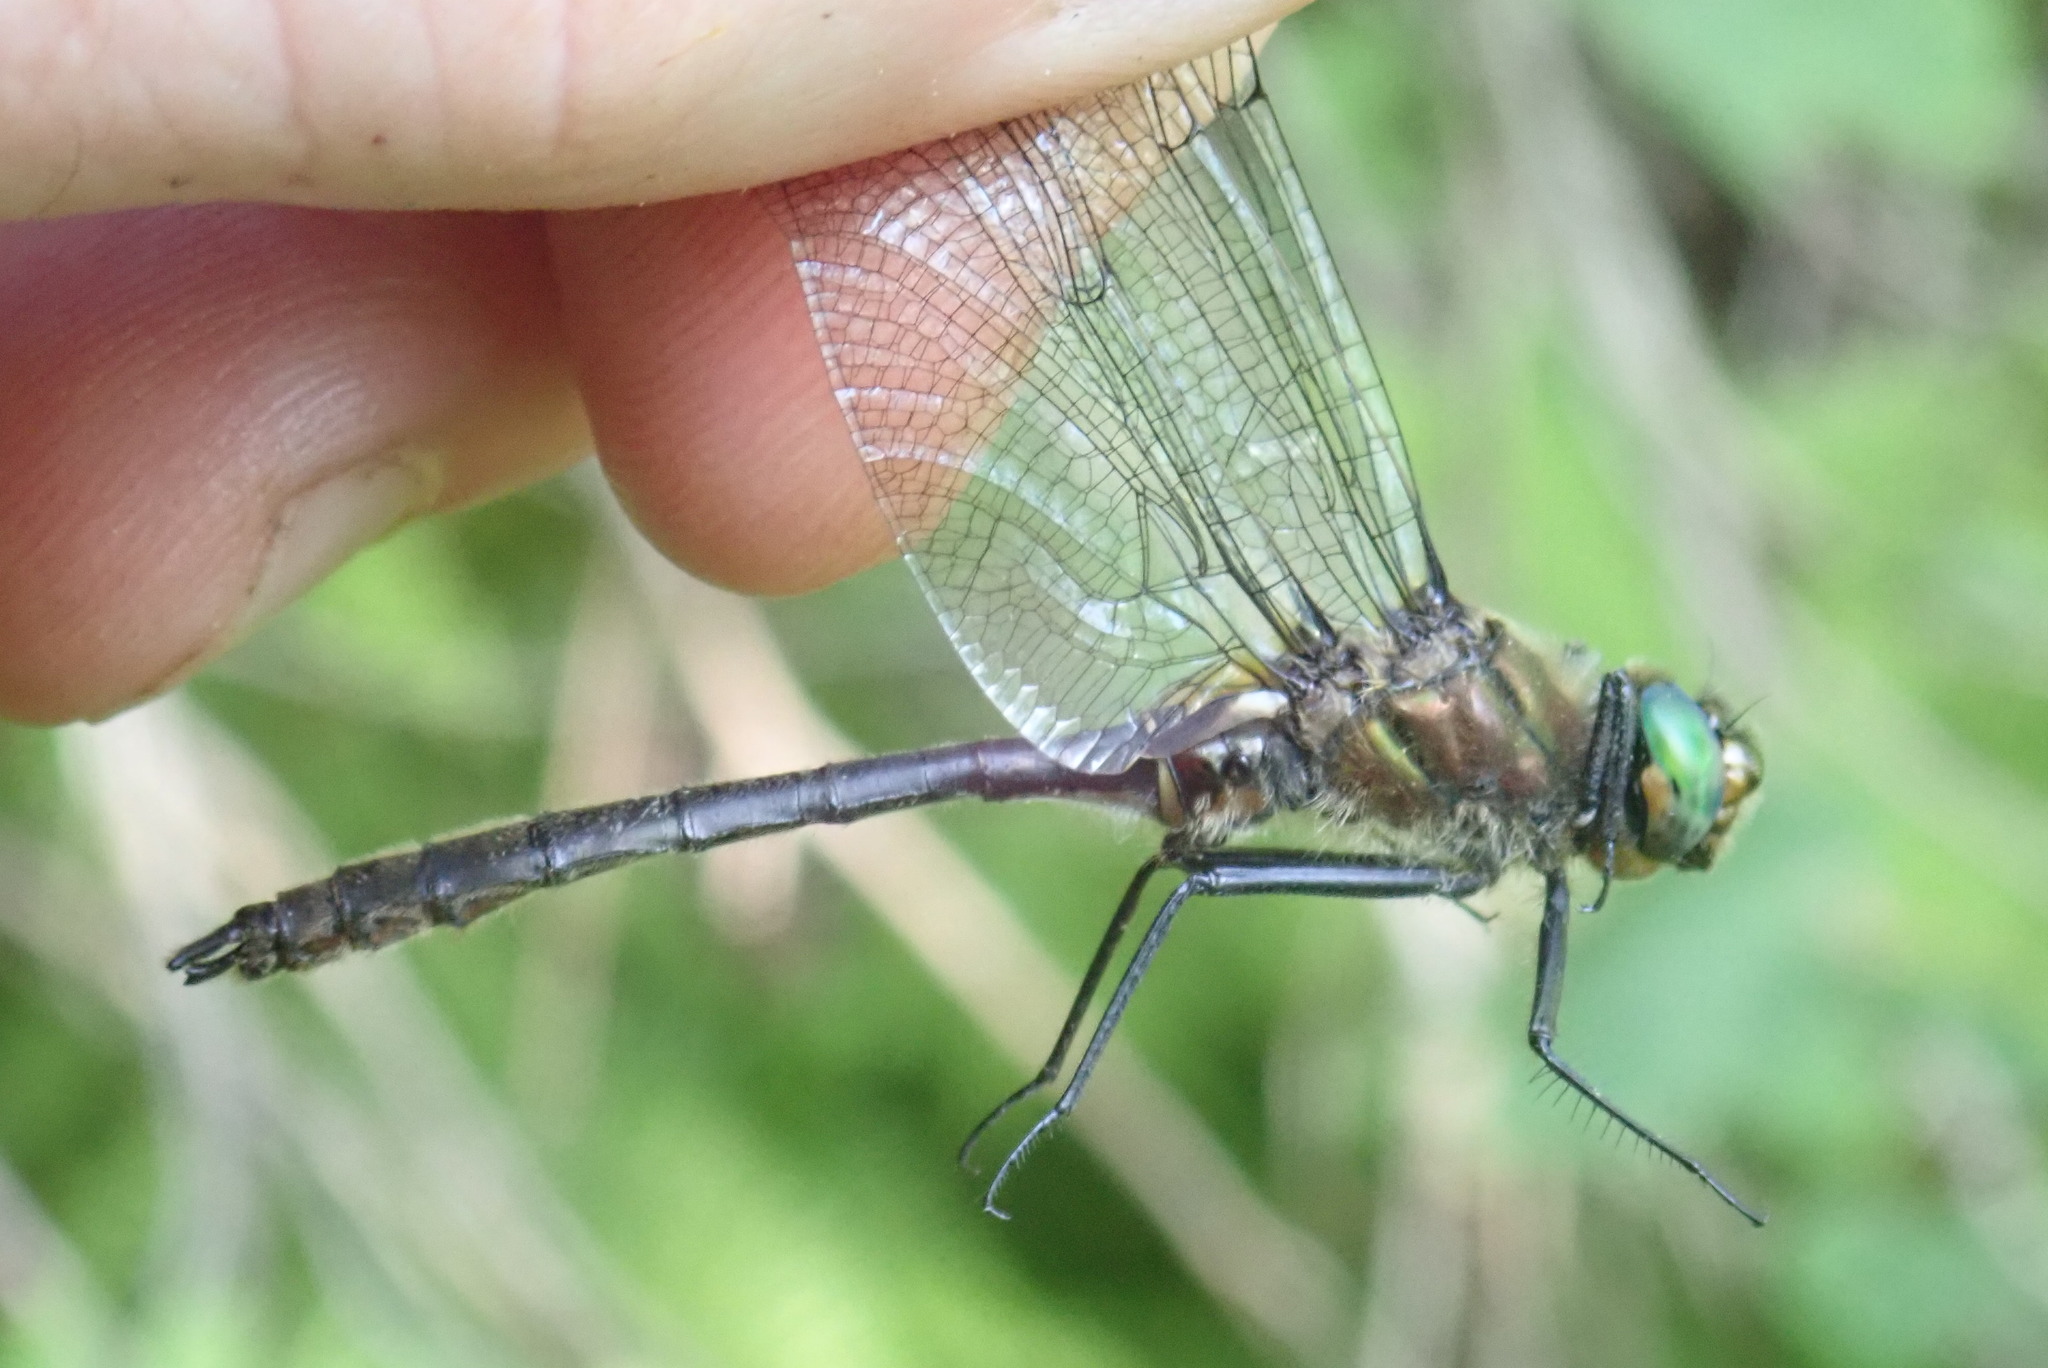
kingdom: Animalia
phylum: Arthropoda
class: Insecta
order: Odonata
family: Corduliidae
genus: Cordulia
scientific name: Cordulia shurtleffii
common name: American emerald
